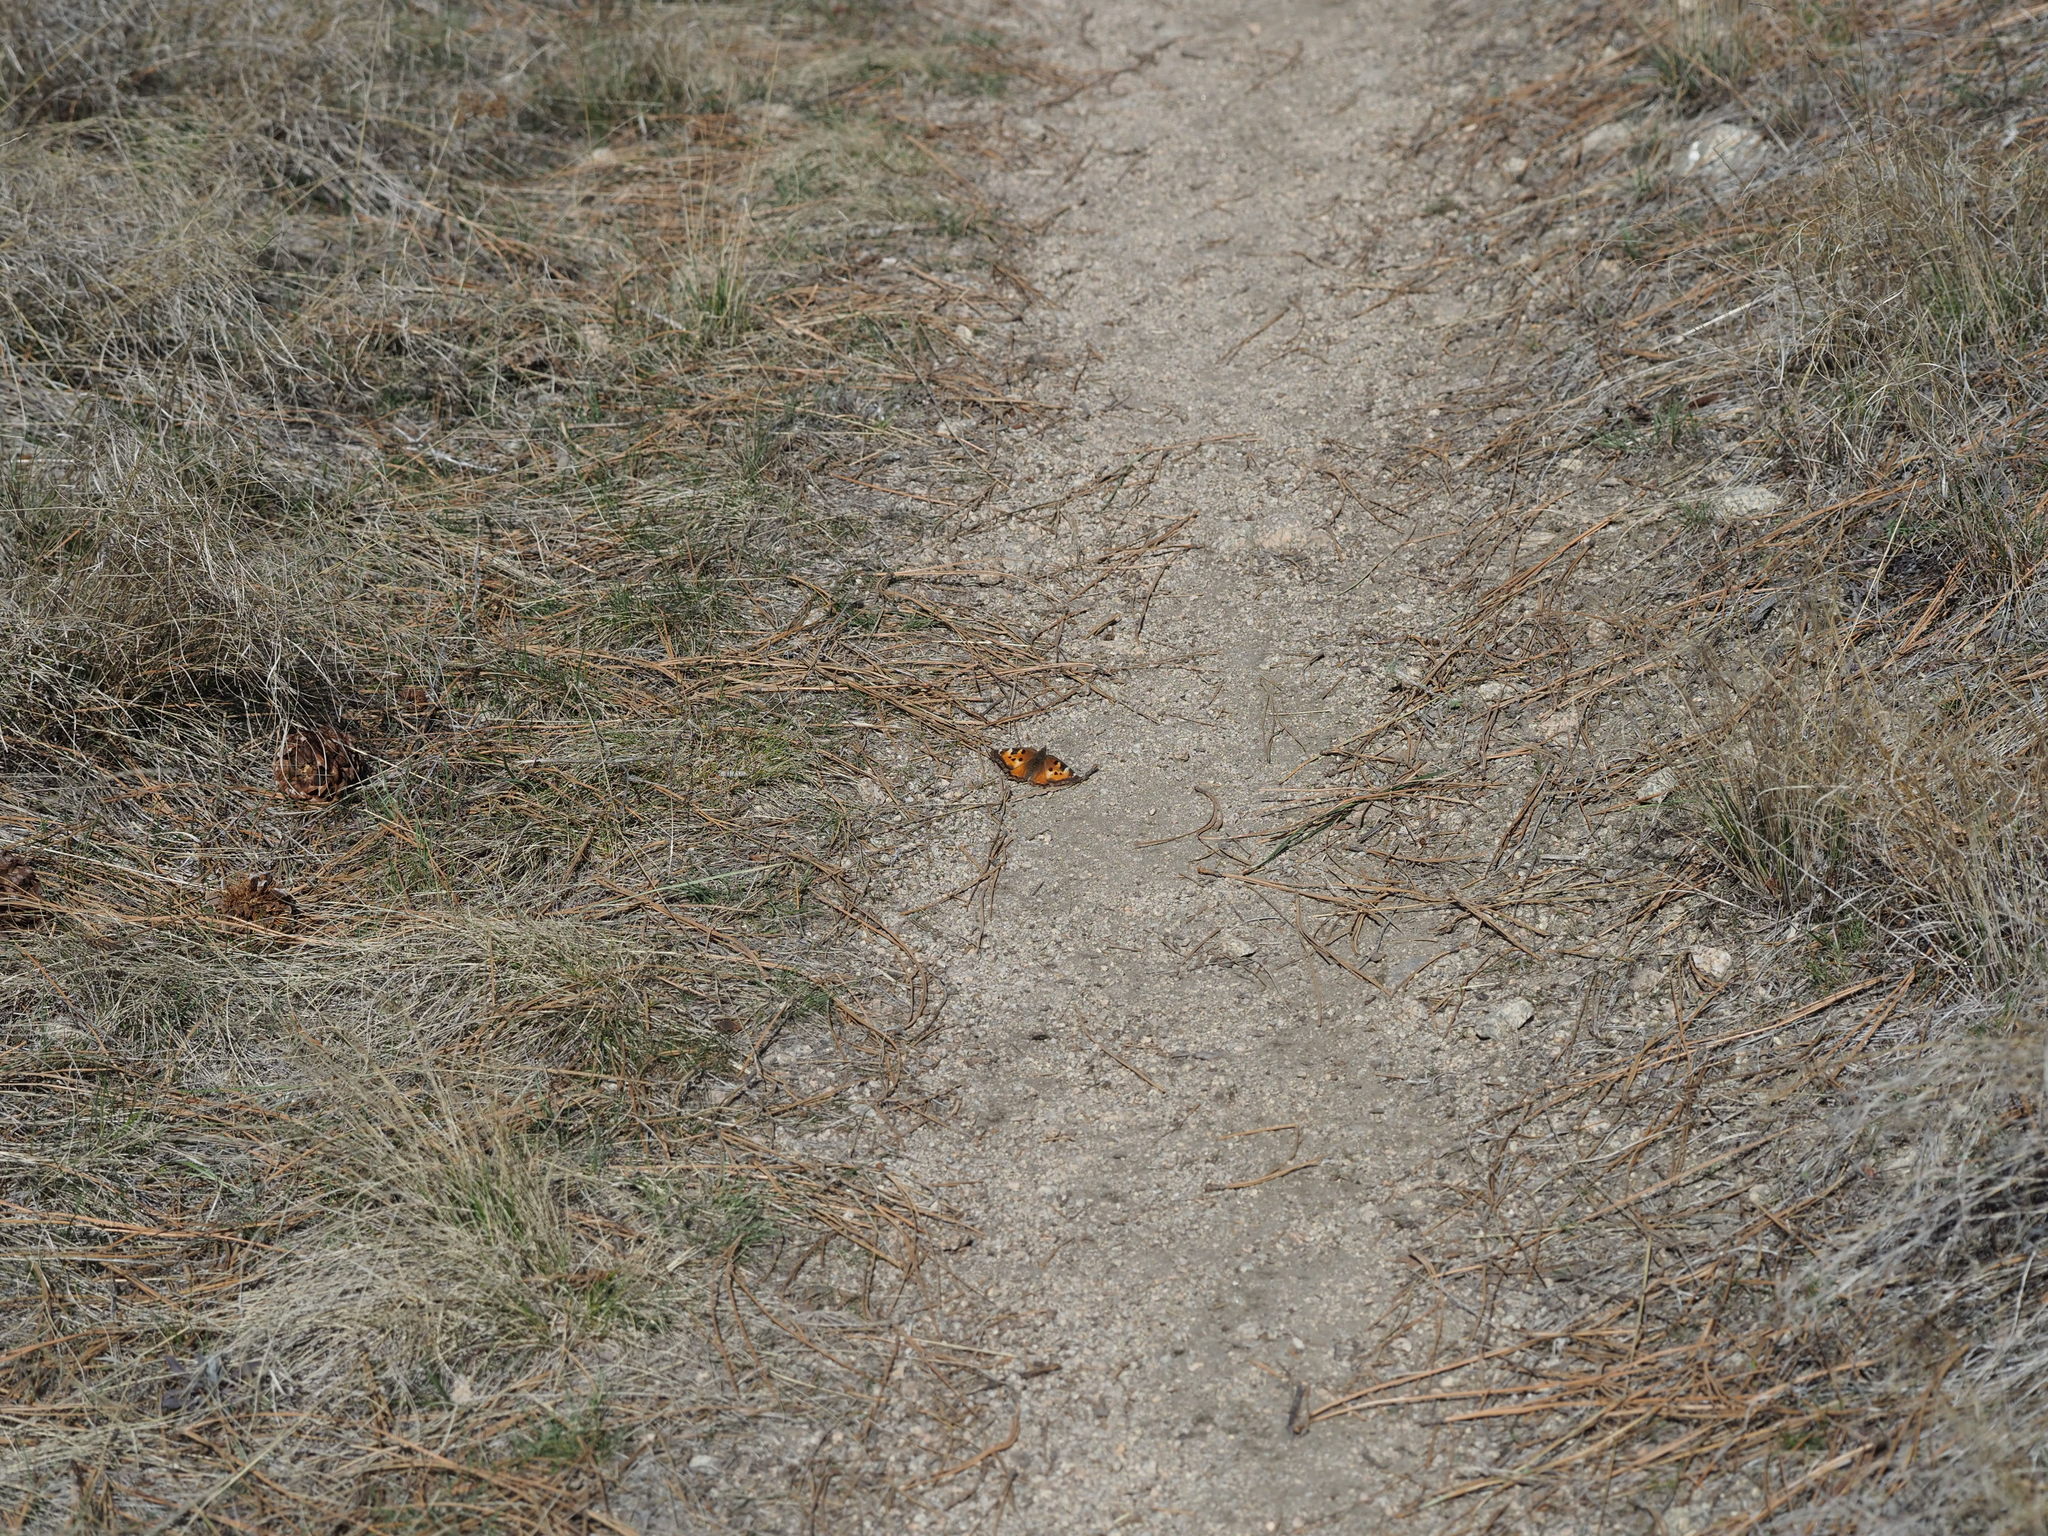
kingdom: Animalia
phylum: Arthropoda
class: Insecta
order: Lepidoptera
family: Nymphalidae
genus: Nymphalis
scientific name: Nymphalis californica
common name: California tortoiseshell
